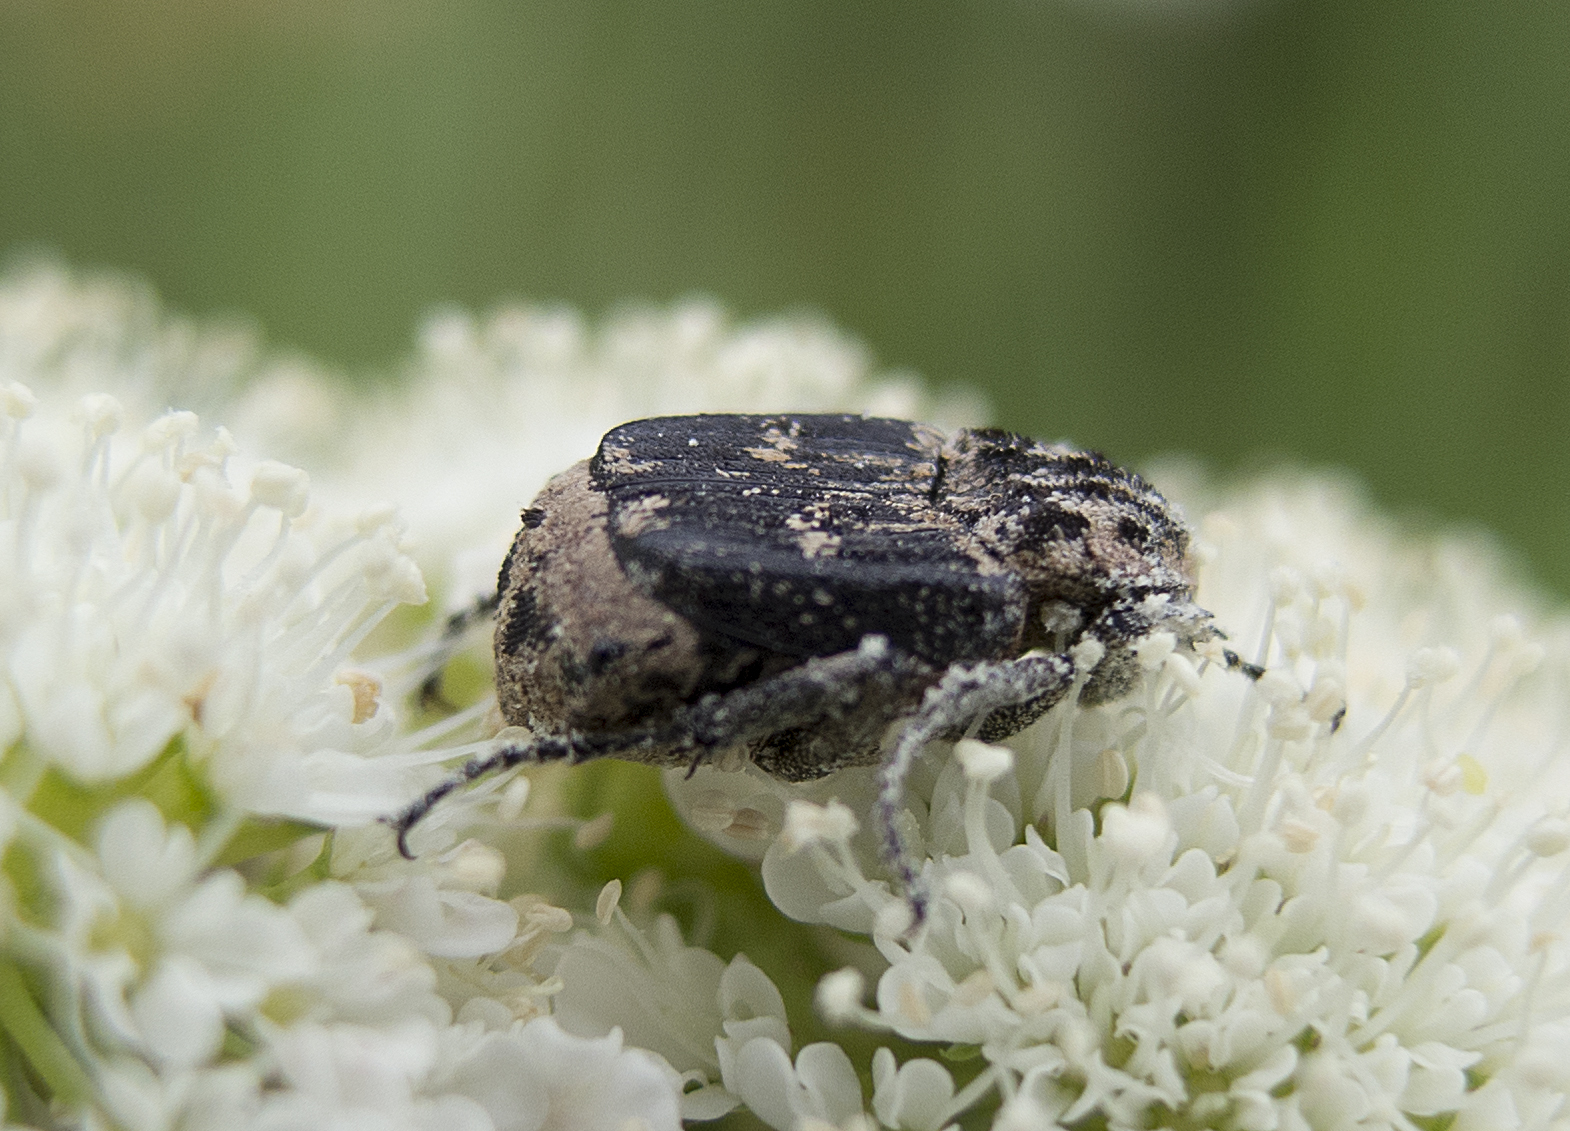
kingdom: Animalia
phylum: Arthropoda
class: Insecta
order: Coleoptera
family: Scarabaeidae
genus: Valgus
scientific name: Valgus hemipterus
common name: Bug flower chafer
